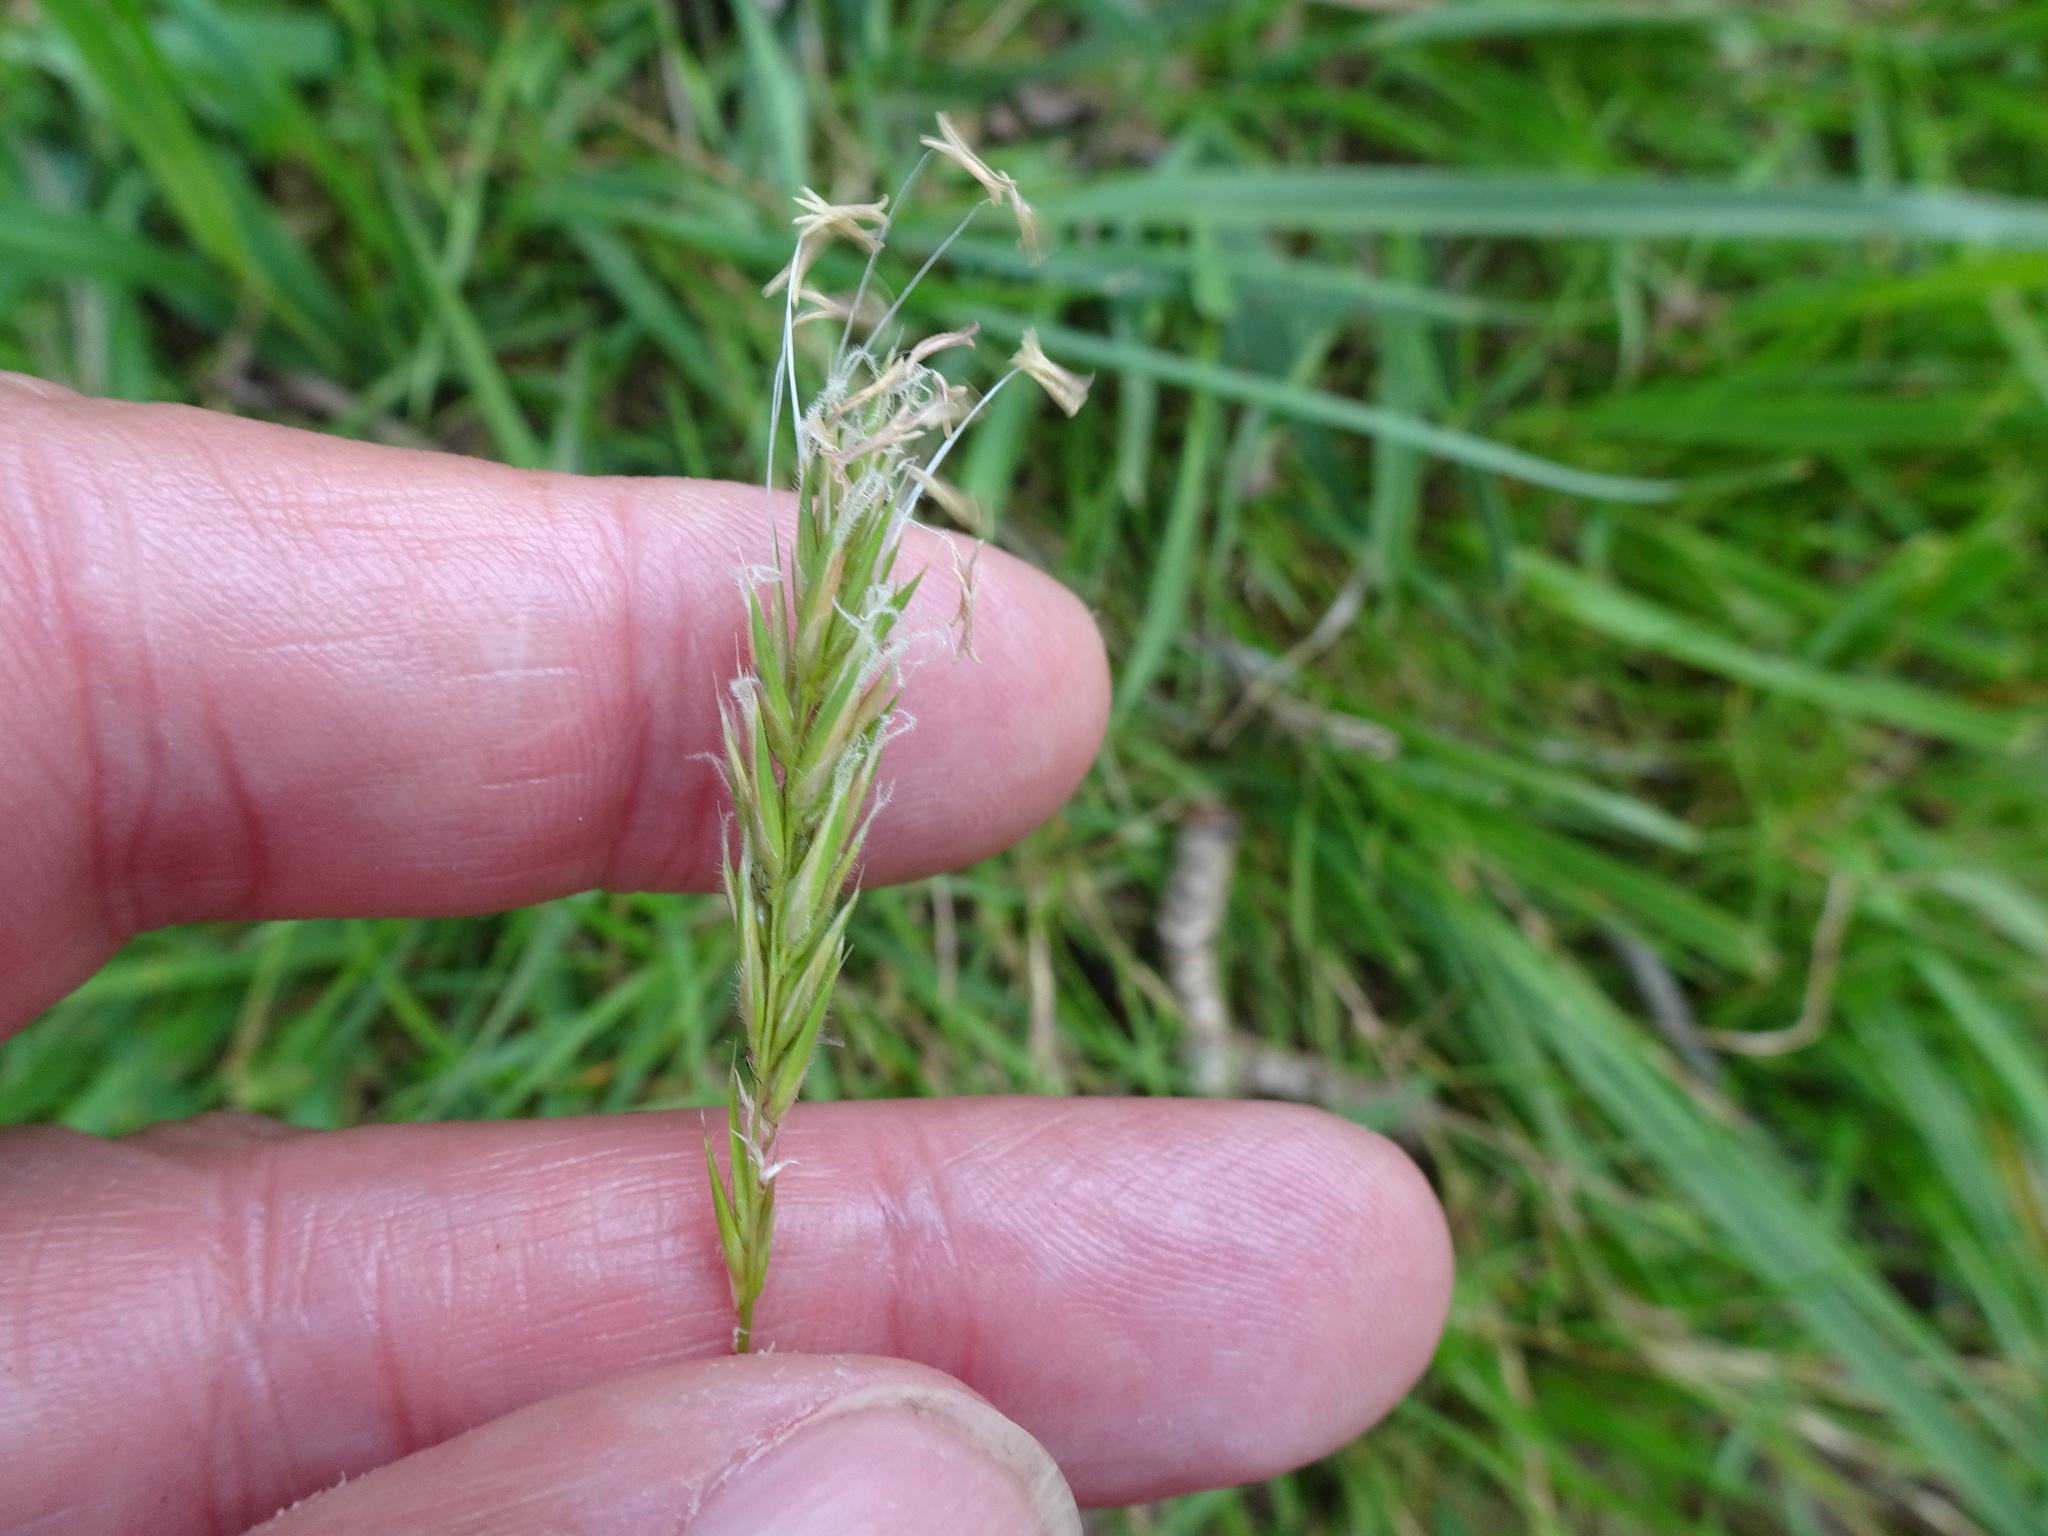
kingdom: Plantae
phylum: Tracheophyta
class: Liliopsida
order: Poales
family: Poaceae
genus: Anthoxanthum
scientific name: Anthoxanthum odoratum
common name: Sweet vernalgrass
